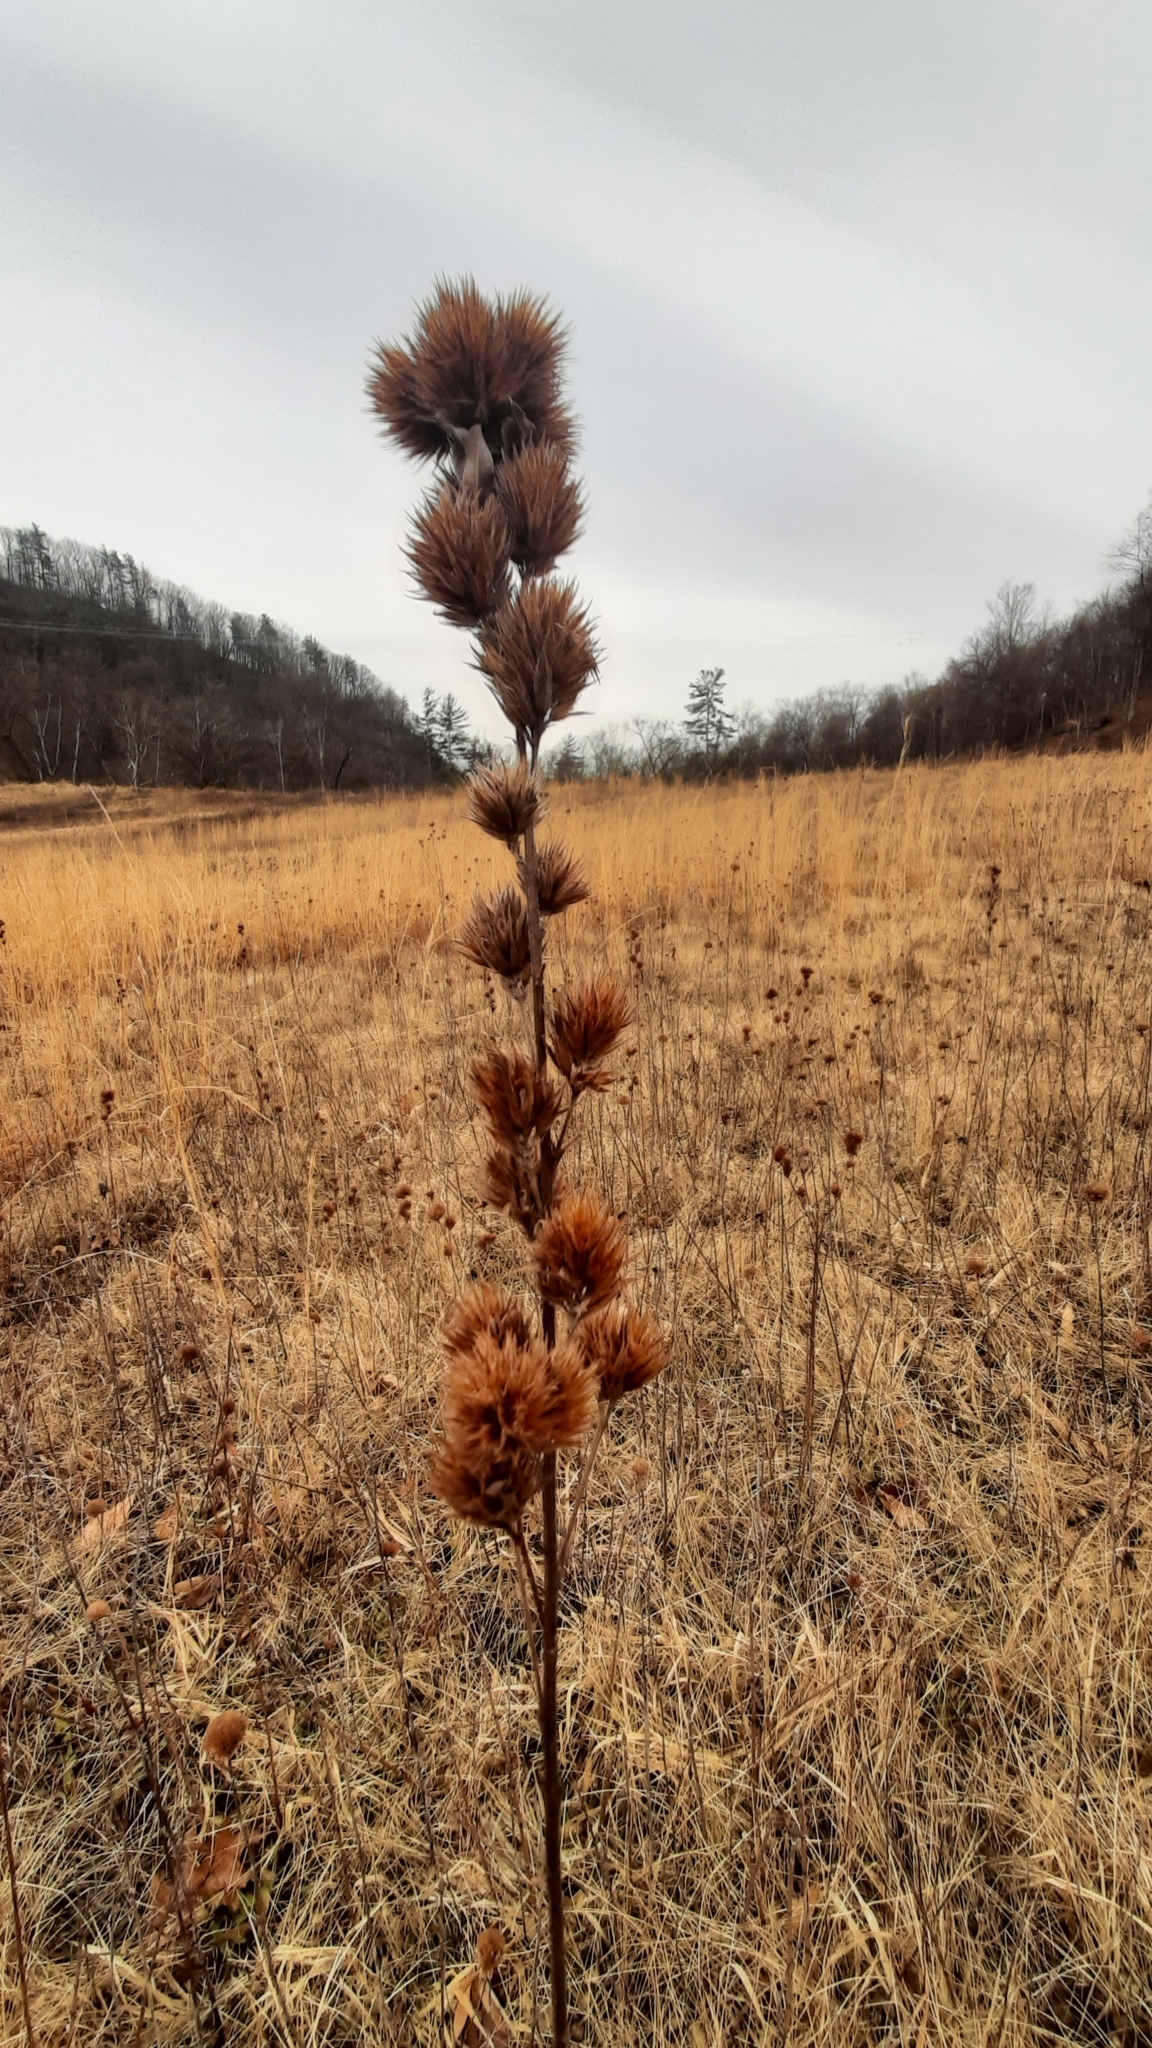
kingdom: Plantae
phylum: Tracheophyta
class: Magnoliopsida
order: Fabales
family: Fabaceae
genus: Lespedeza
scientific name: Lespedeza capitata
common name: Dusty clover
